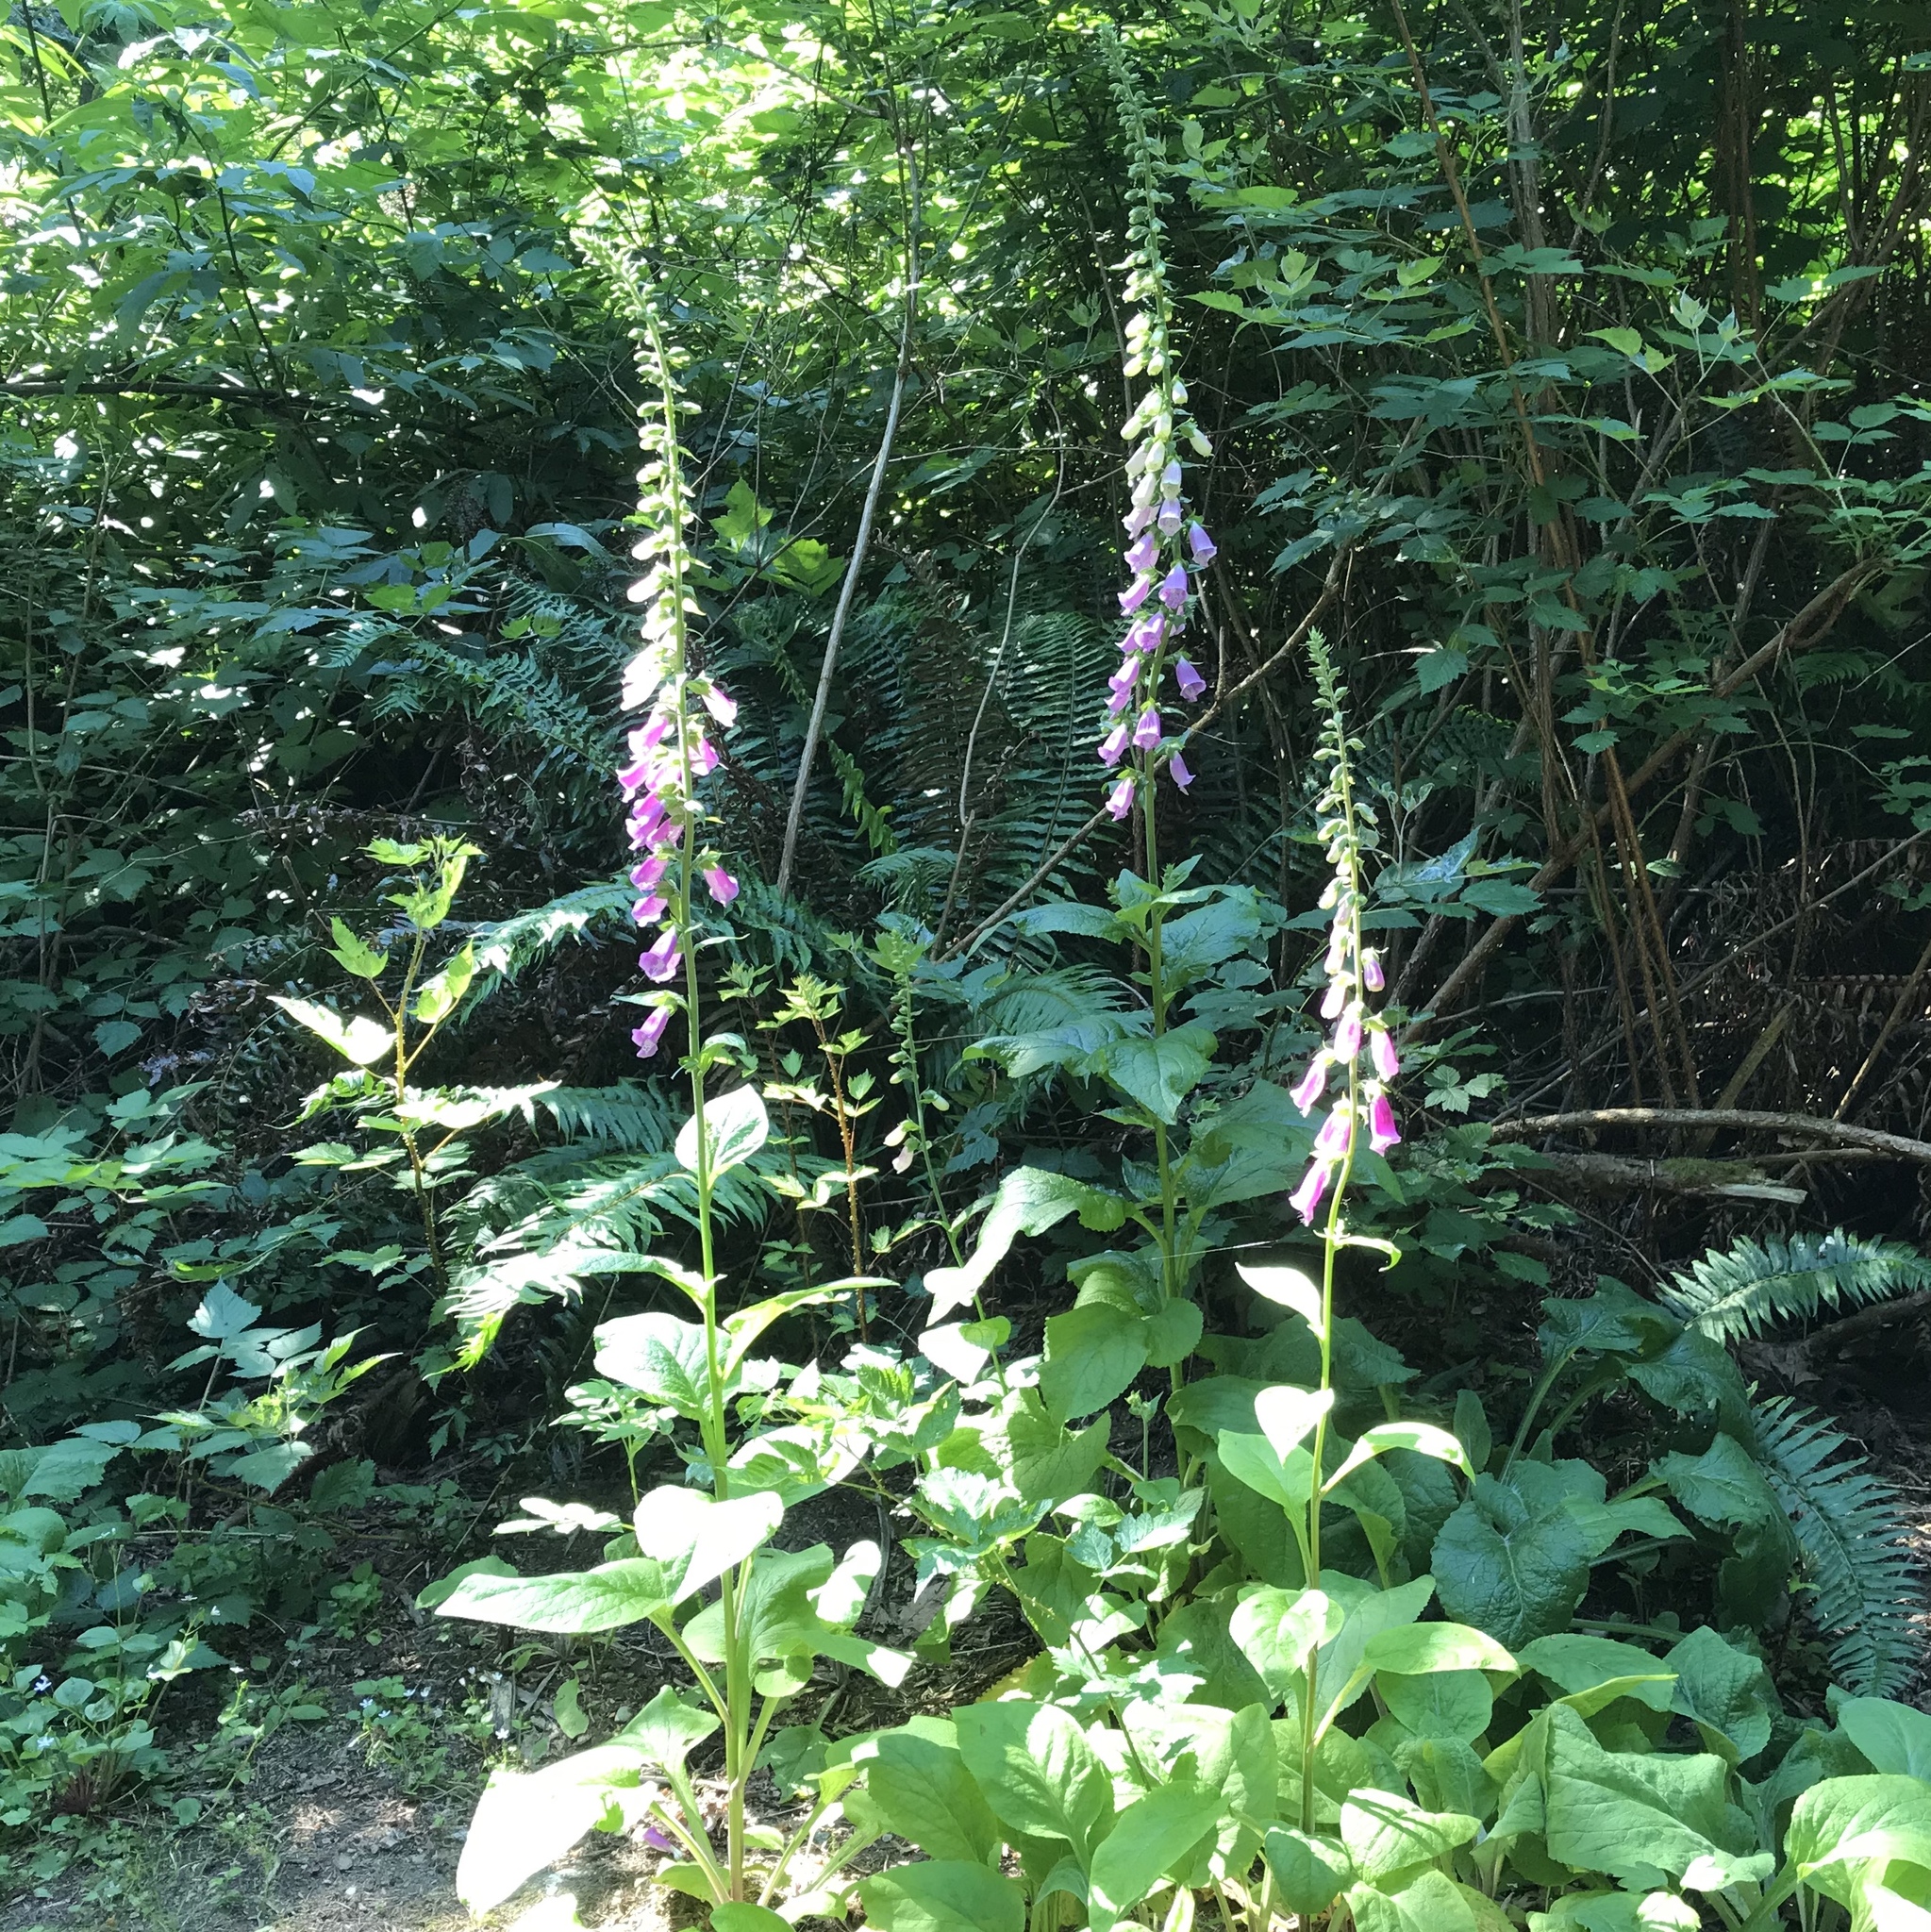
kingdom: Plantae
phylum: Tracheophyta
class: Magnoliopsida
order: Lamiales
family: Plantaginaceae
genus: Digitalis
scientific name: Digitalis purpurea
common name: Foxglove
